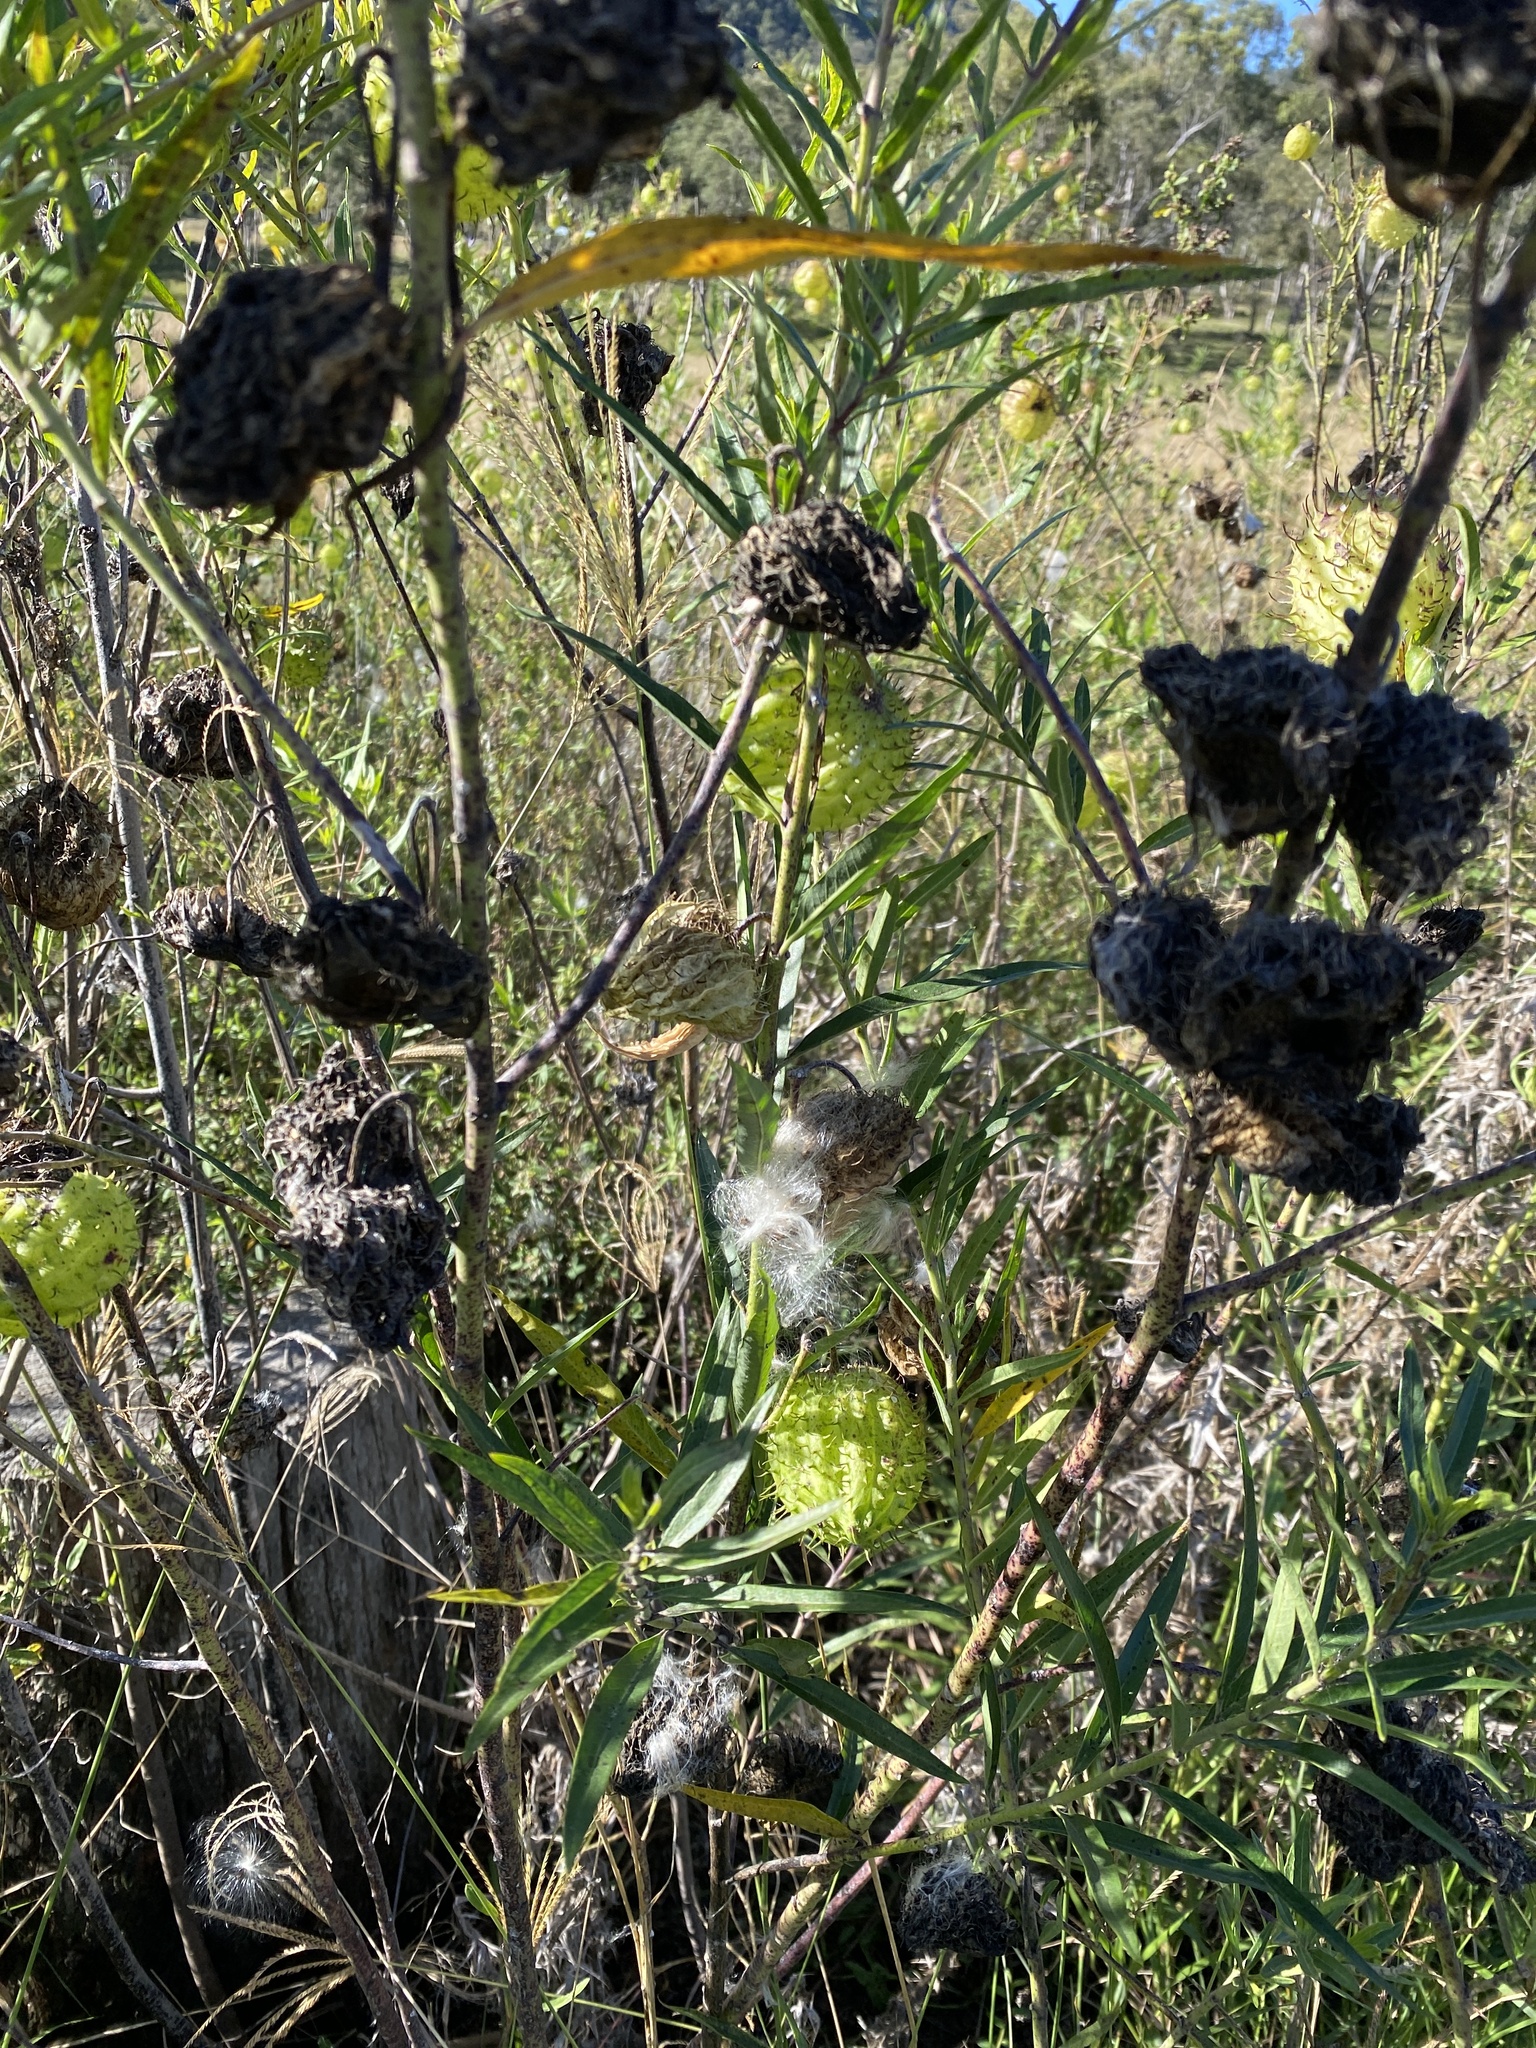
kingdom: Plantae
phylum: Tracheophyta
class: Magnoliopsida
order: Gentianales
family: Apocynaceae
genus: Gomphocarpus
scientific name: Gomphocarpus physocarpus
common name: Balloon cotton bush
